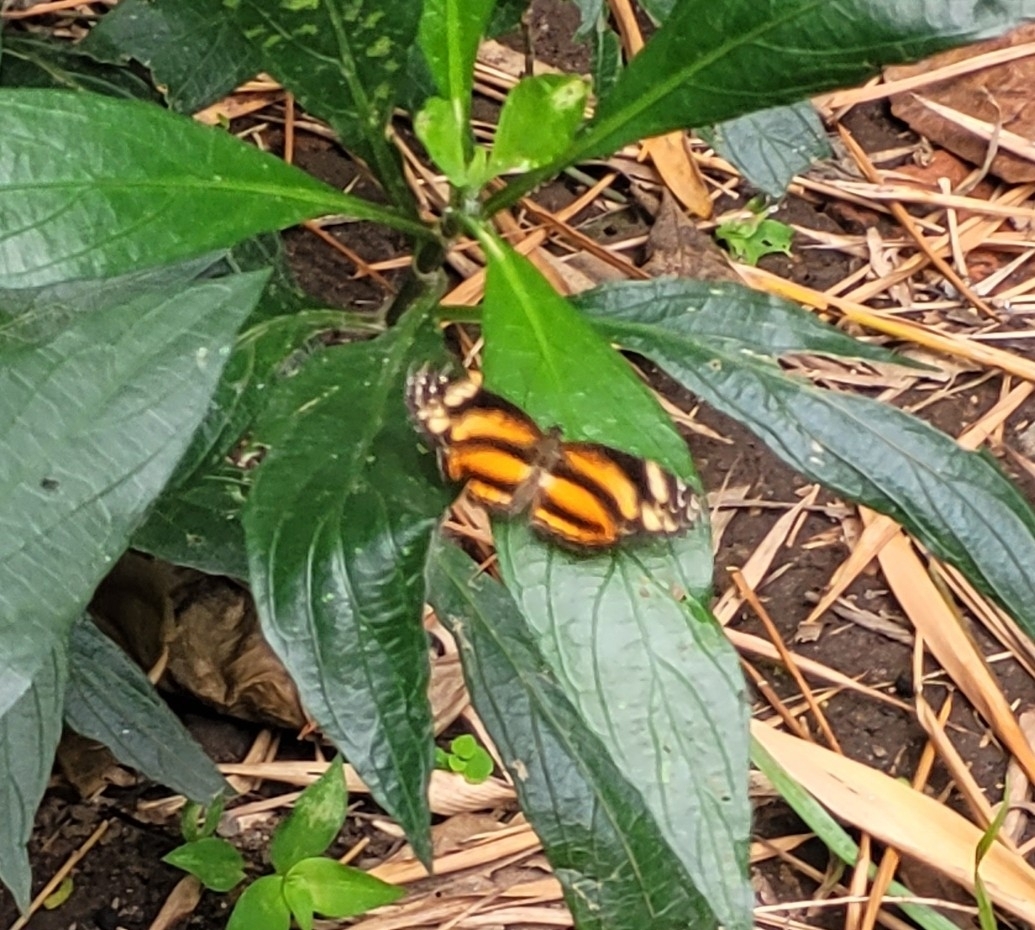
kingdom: Animalia
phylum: Arthropoda
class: Insecta
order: Lepidoptera
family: Nymphalidae
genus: Castilia
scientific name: Castilia eranites
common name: Smudged crescent
